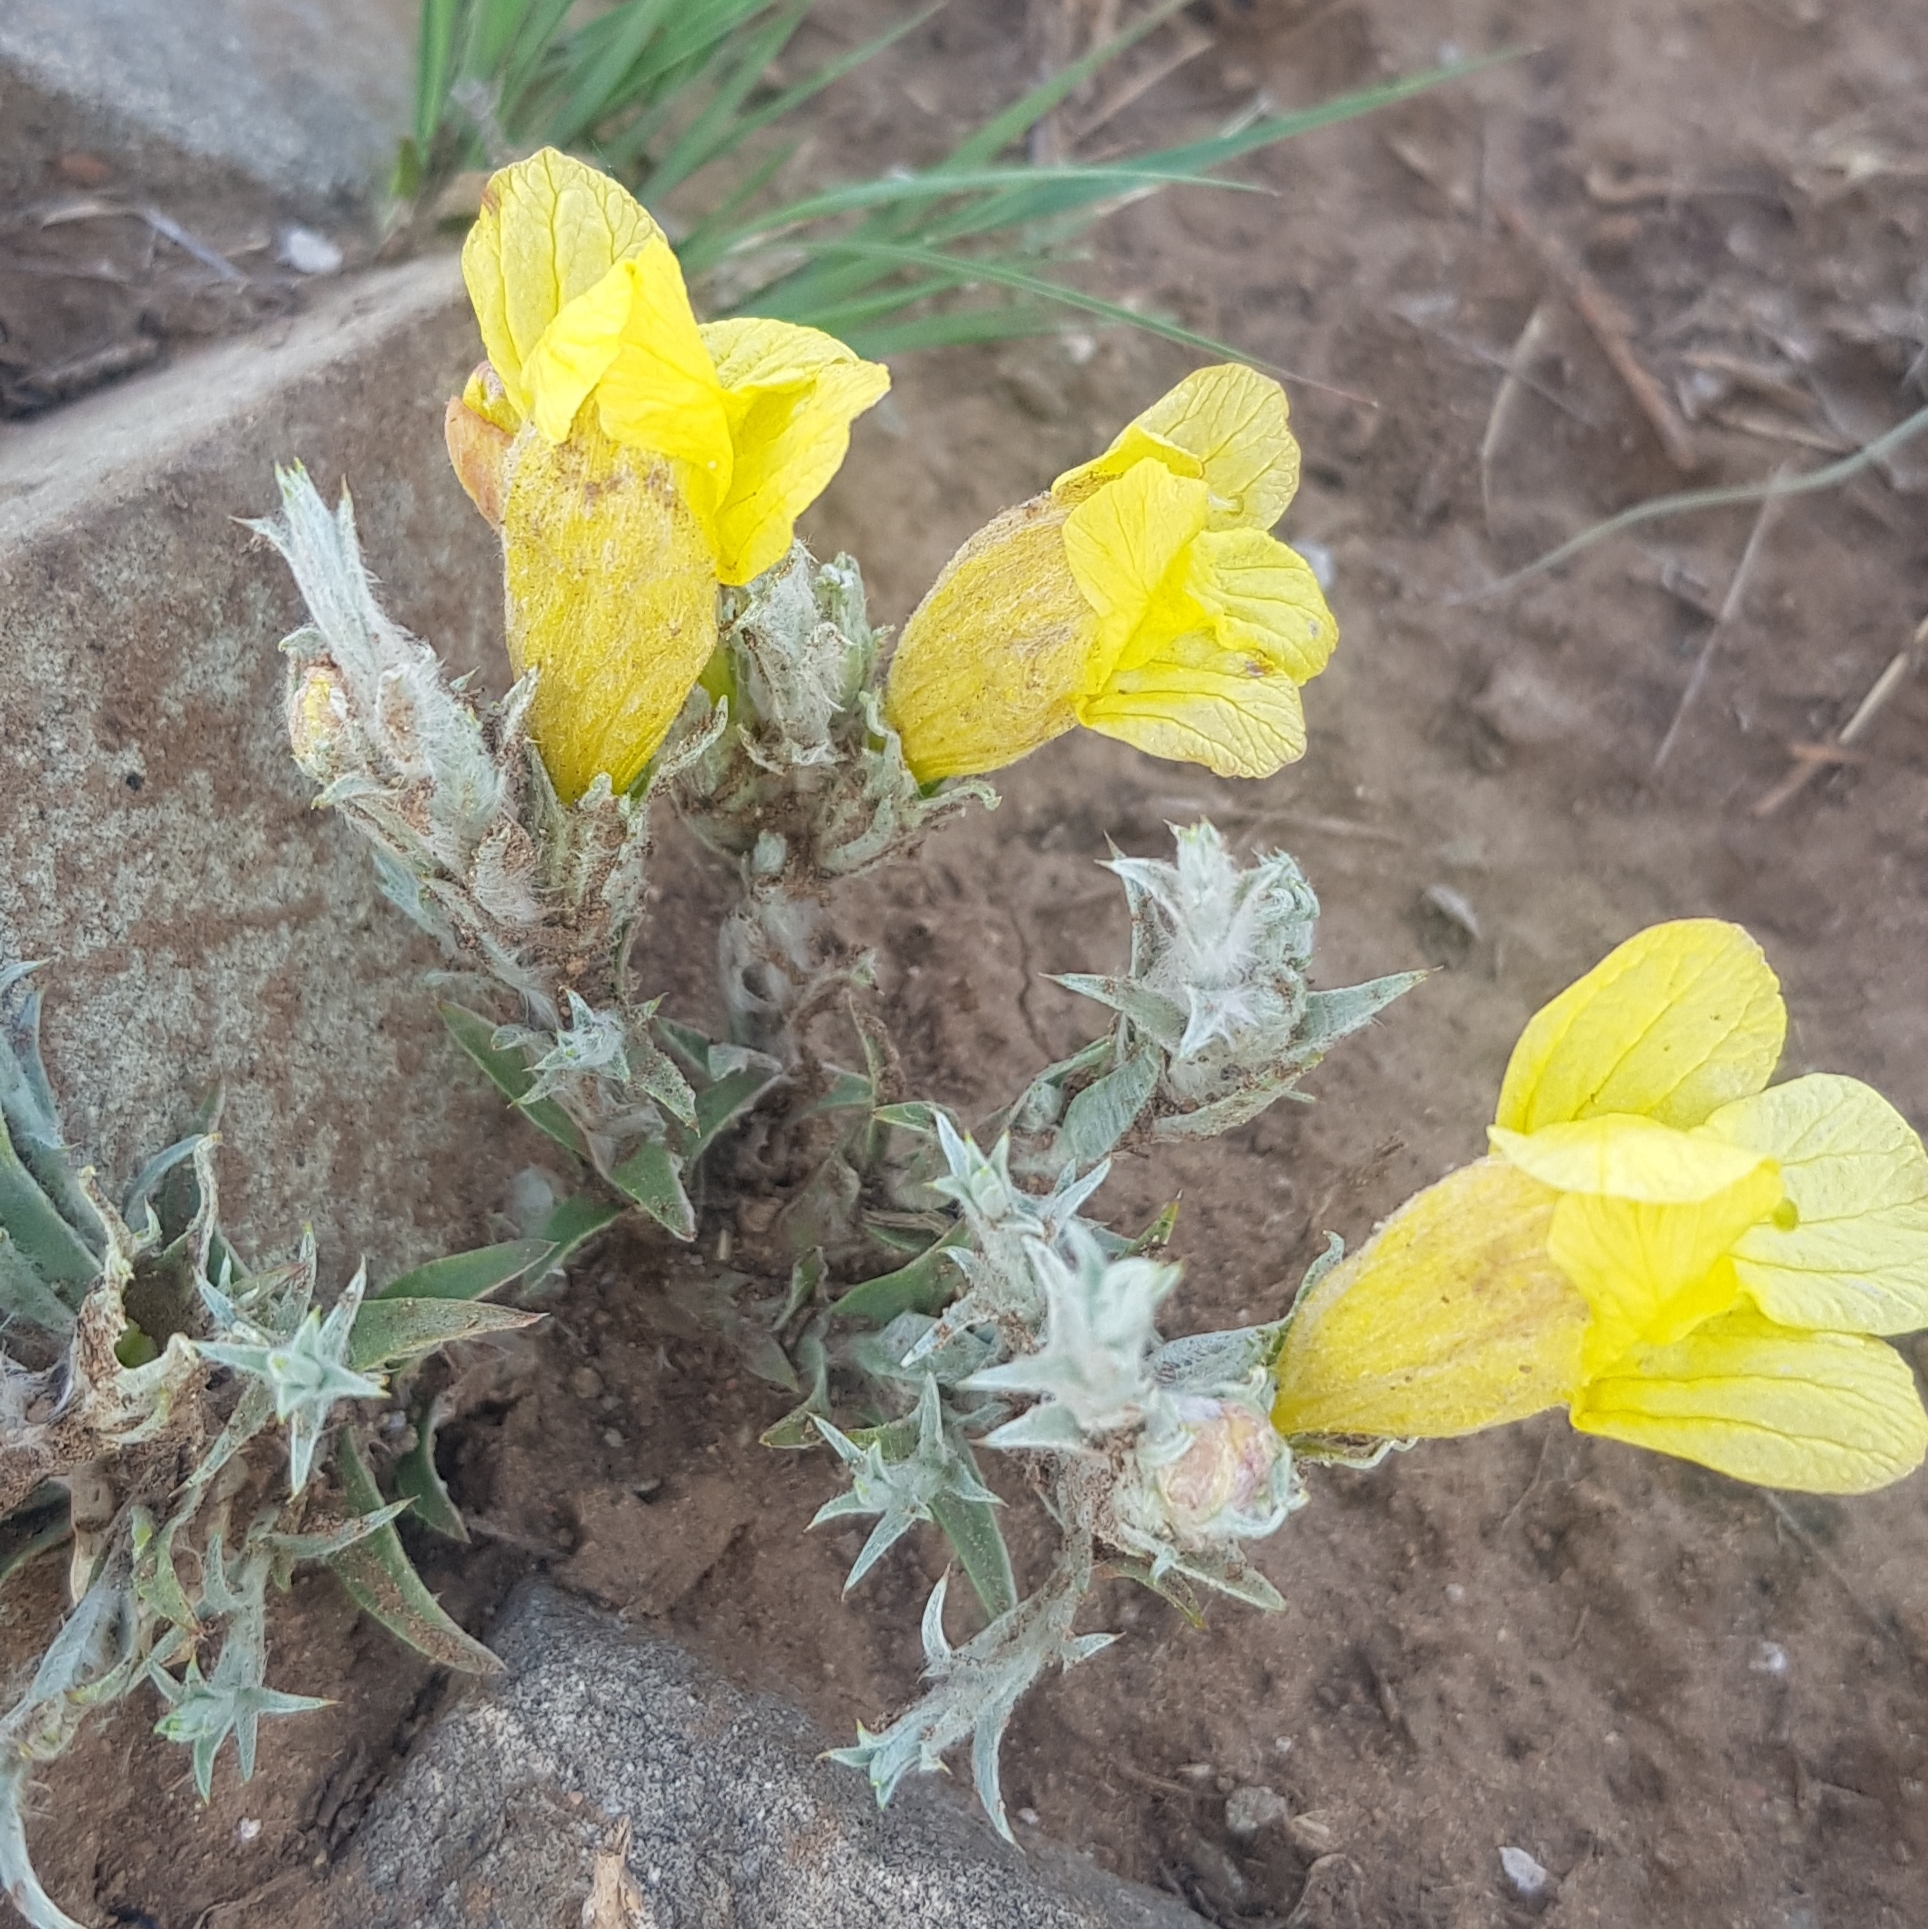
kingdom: Plantae
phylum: Tracheophyta
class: Magnoliopsida
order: Lamiales
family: Orobanchaceae
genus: Cymbaria
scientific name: Cymbaria daurica
